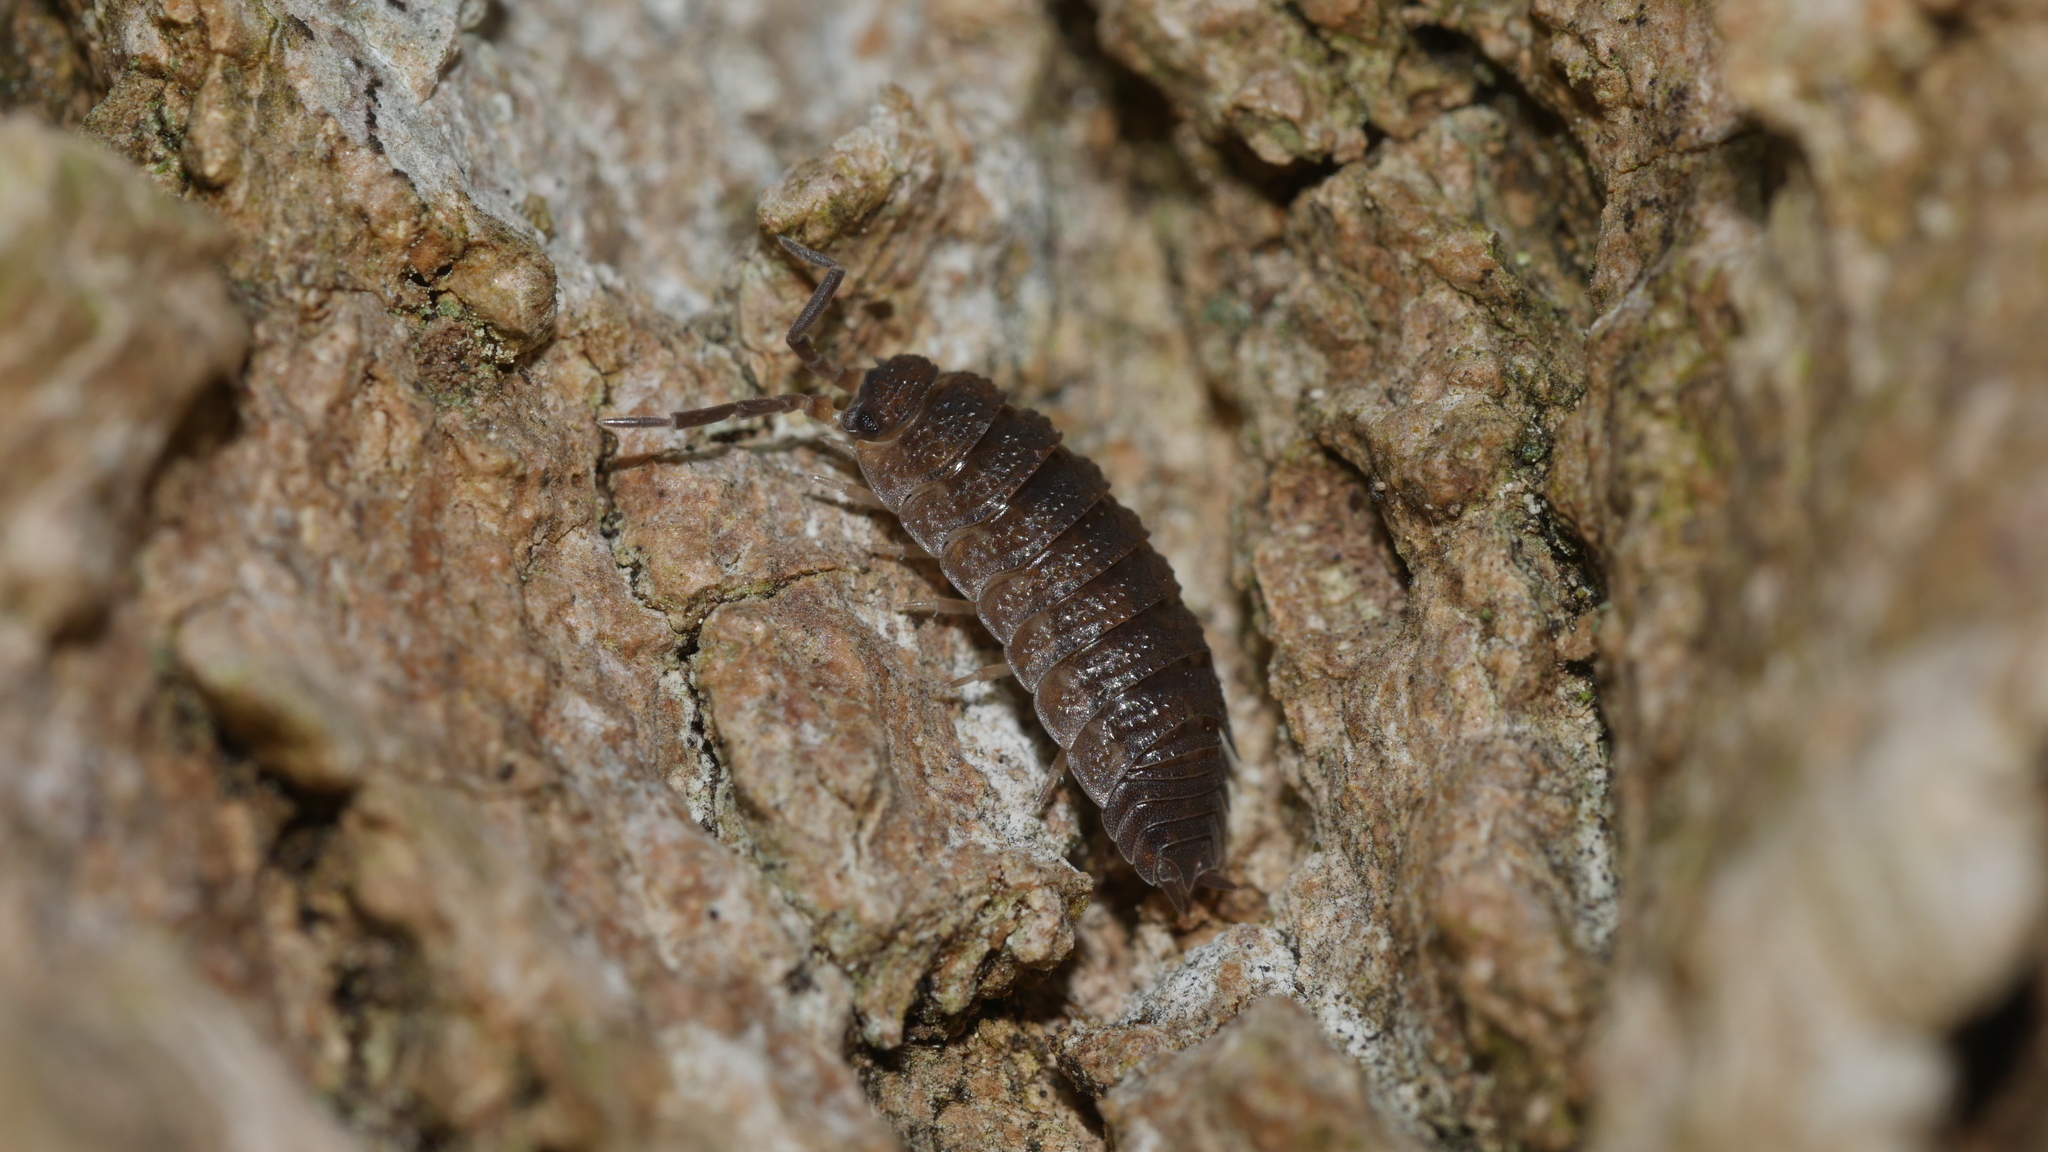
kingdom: Animalia
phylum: Arthropoda
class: Malacostraca
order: Isopoda
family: Porcellionidae
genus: Porcellio
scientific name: Porcellio scaber
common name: Common rough woodlouse
